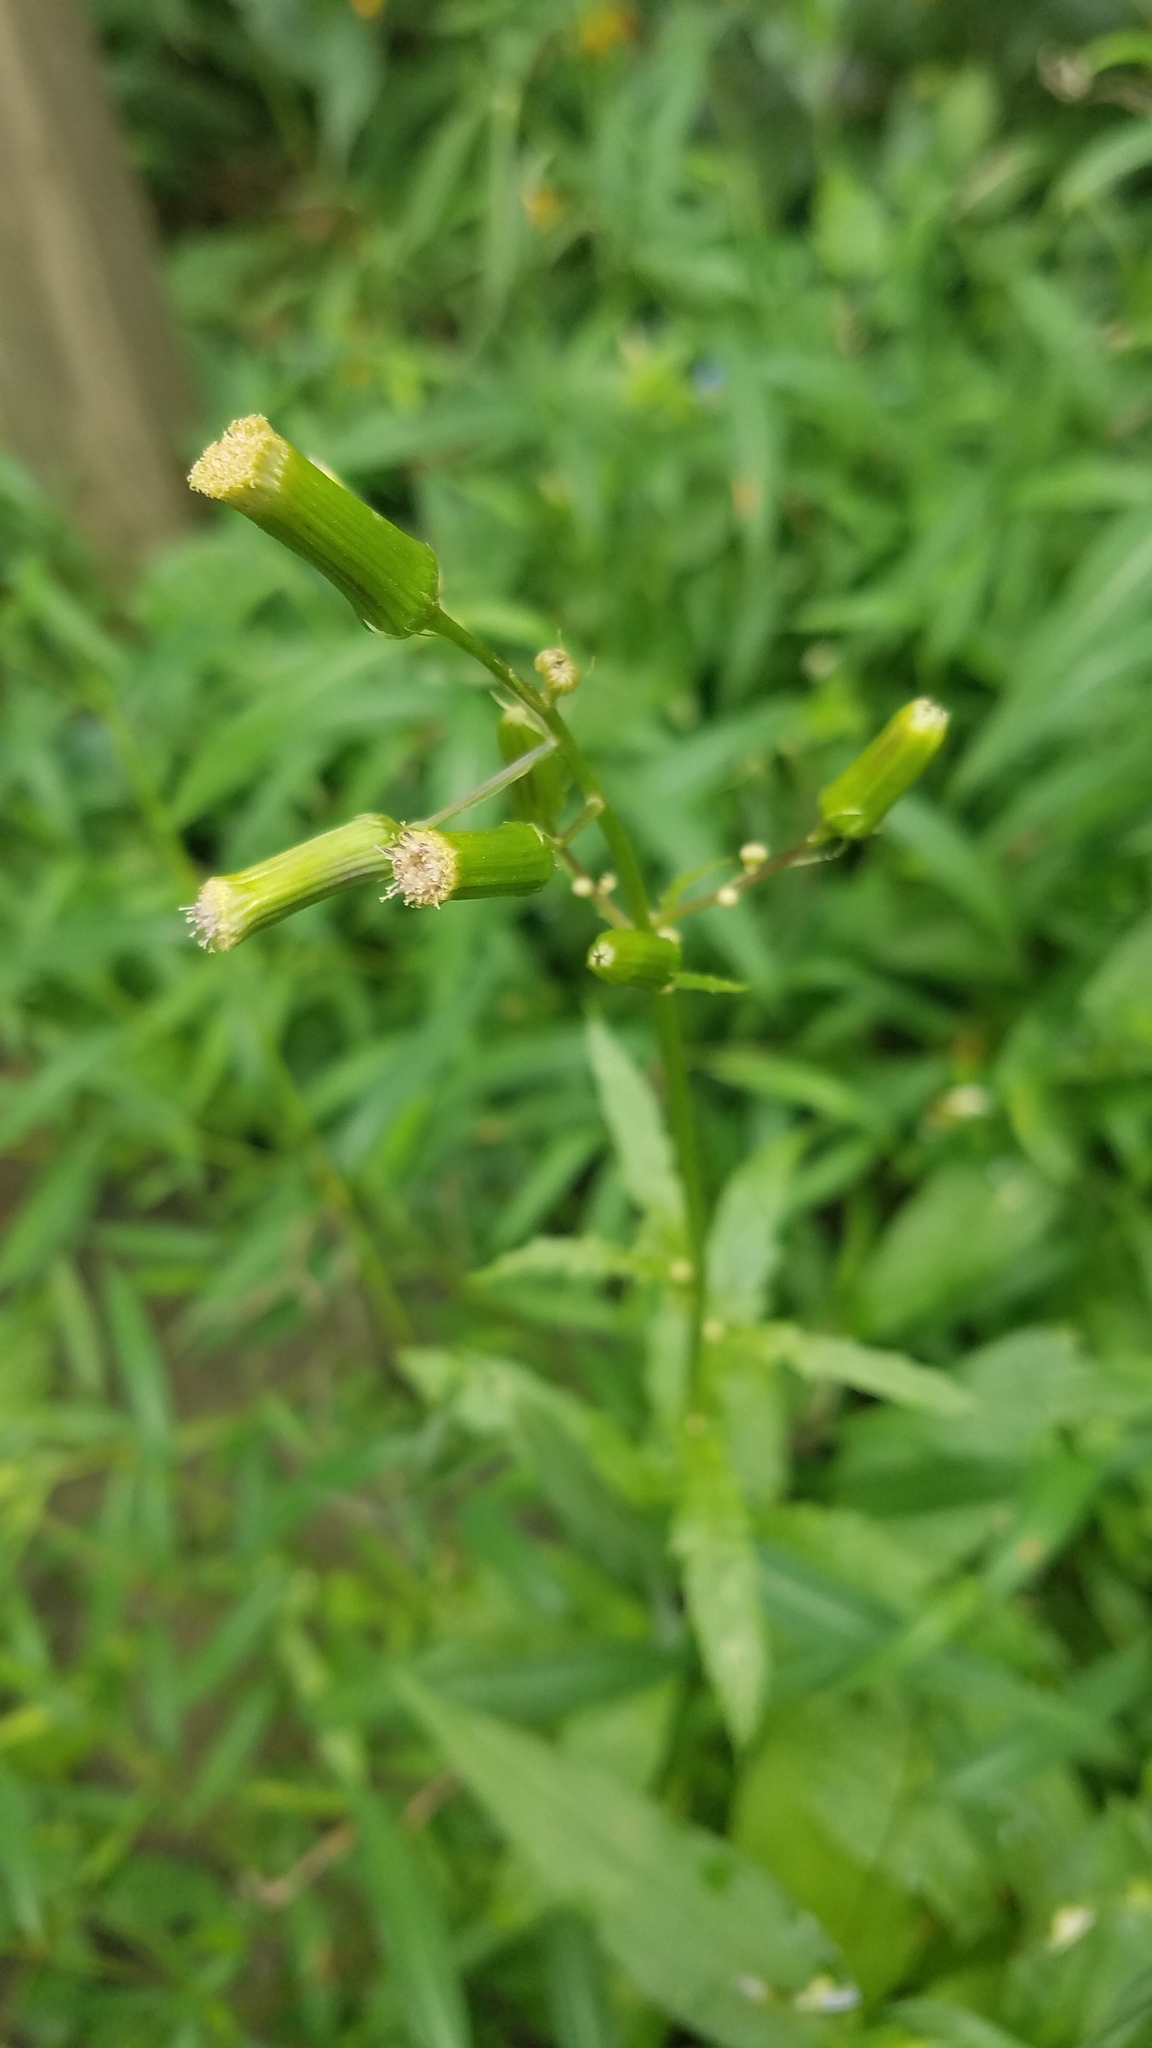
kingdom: Plantae
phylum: Tracheophyta
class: Magnoliopsida
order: Asterales
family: Asteraceae
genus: Erechtites
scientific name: Erechtites hieraciifolius
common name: American burnweed
